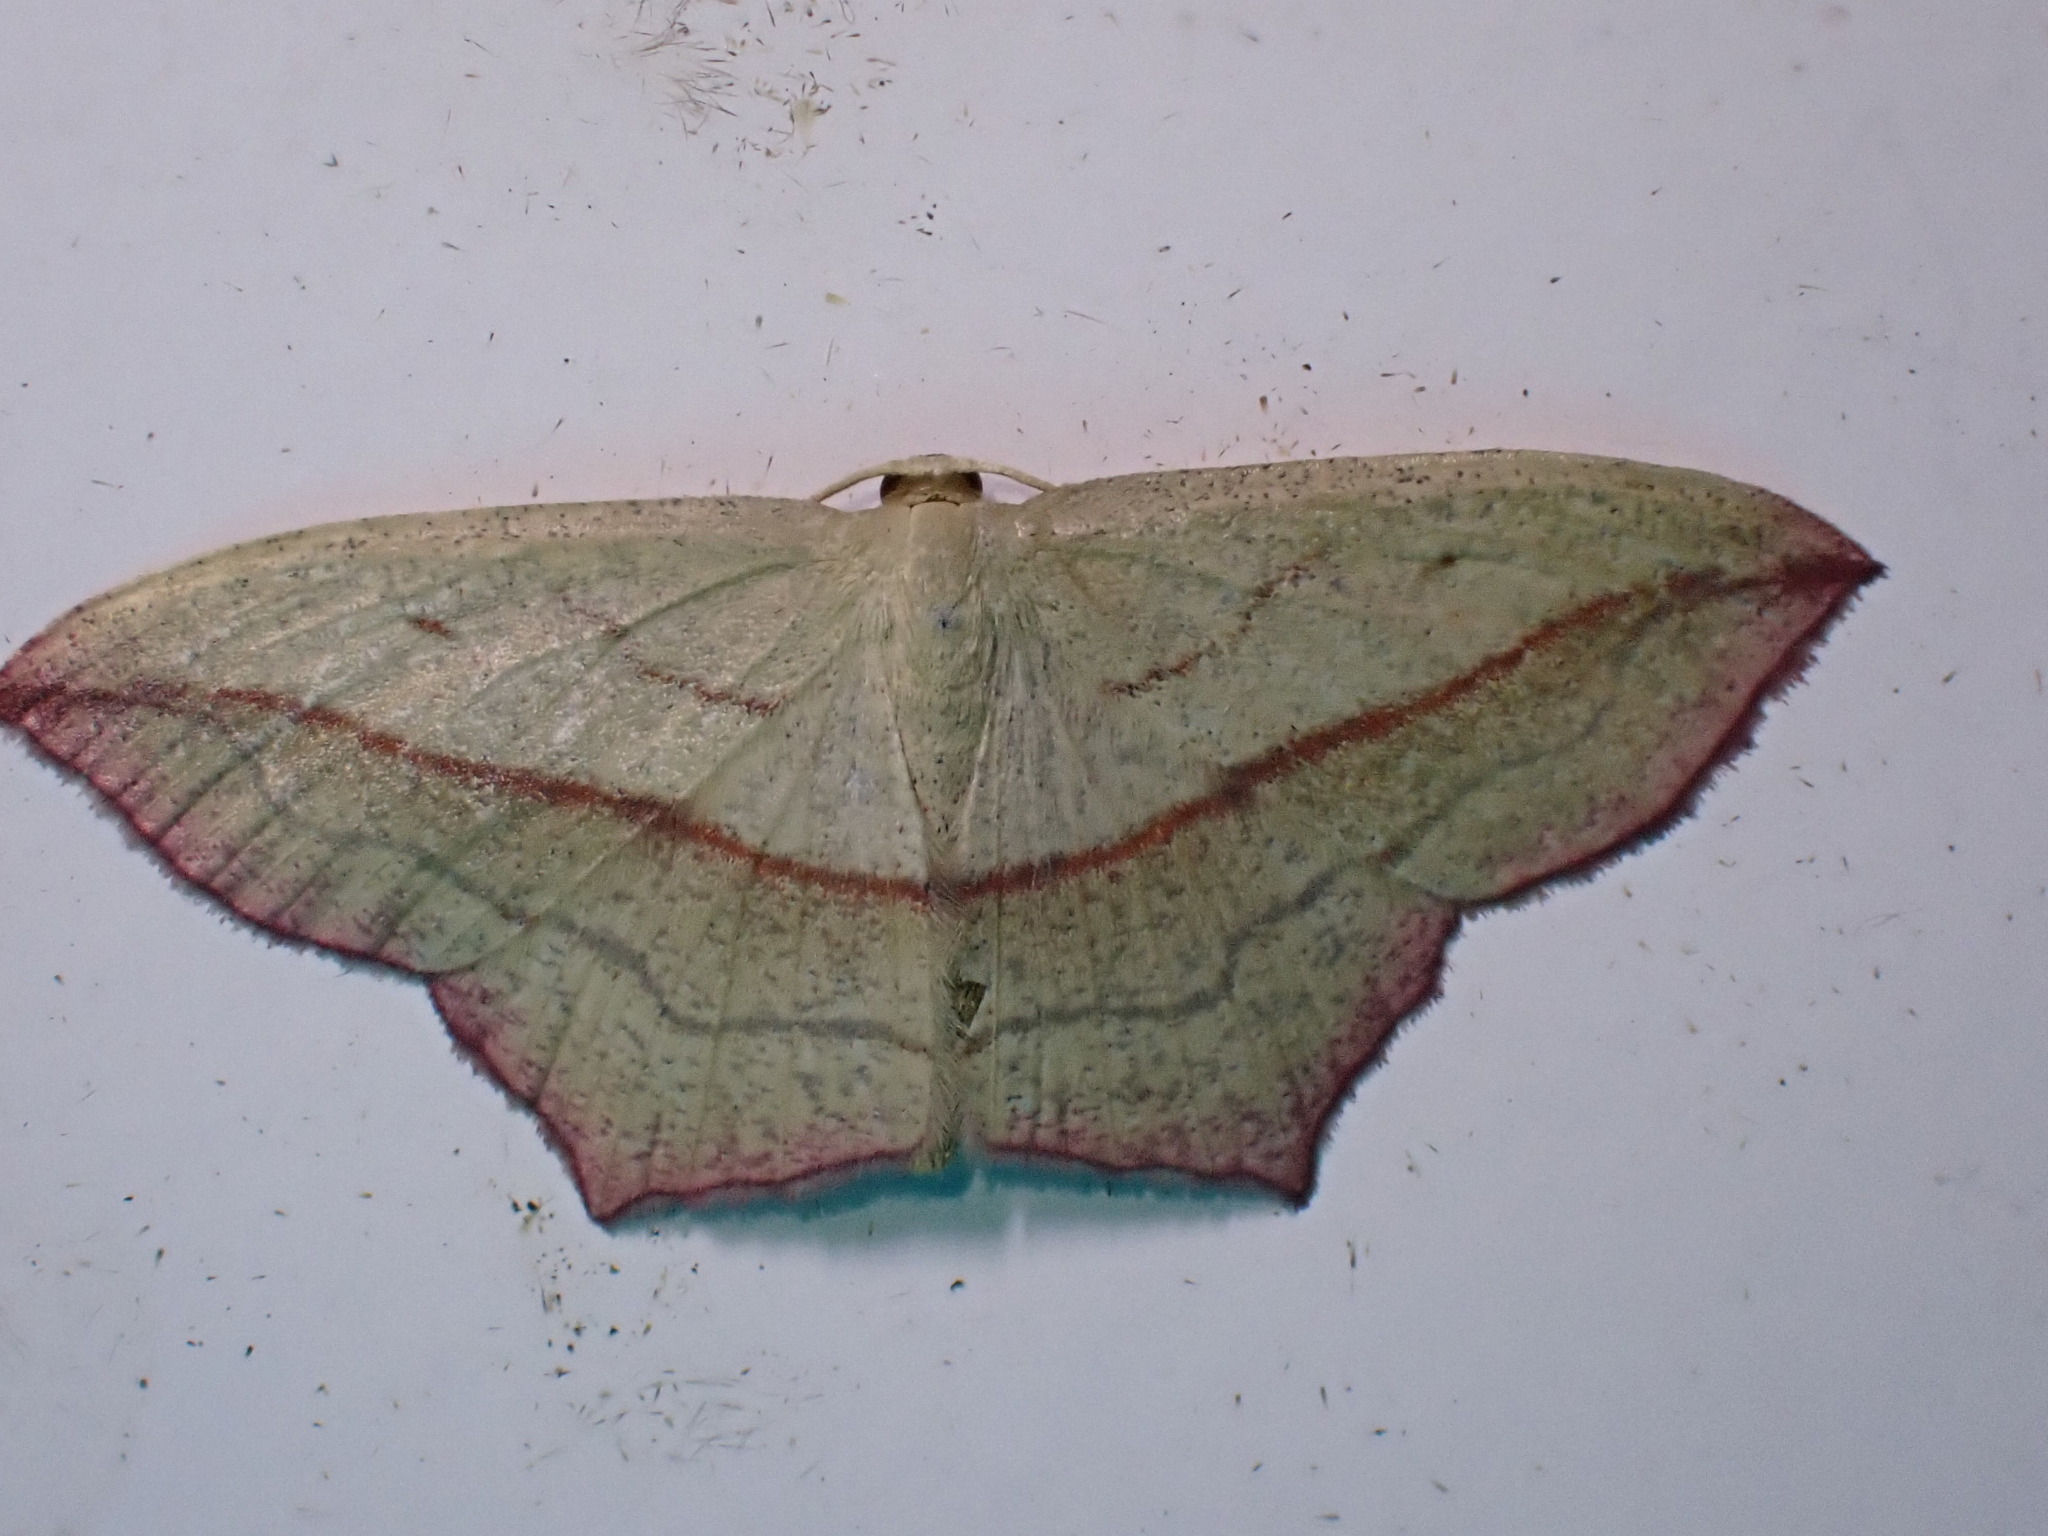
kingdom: Animalia
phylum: Arthropoda
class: Insecta
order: Lepidoptera
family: Geometridae
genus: Timandra
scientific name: Timandra comae
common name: Blood-vein
